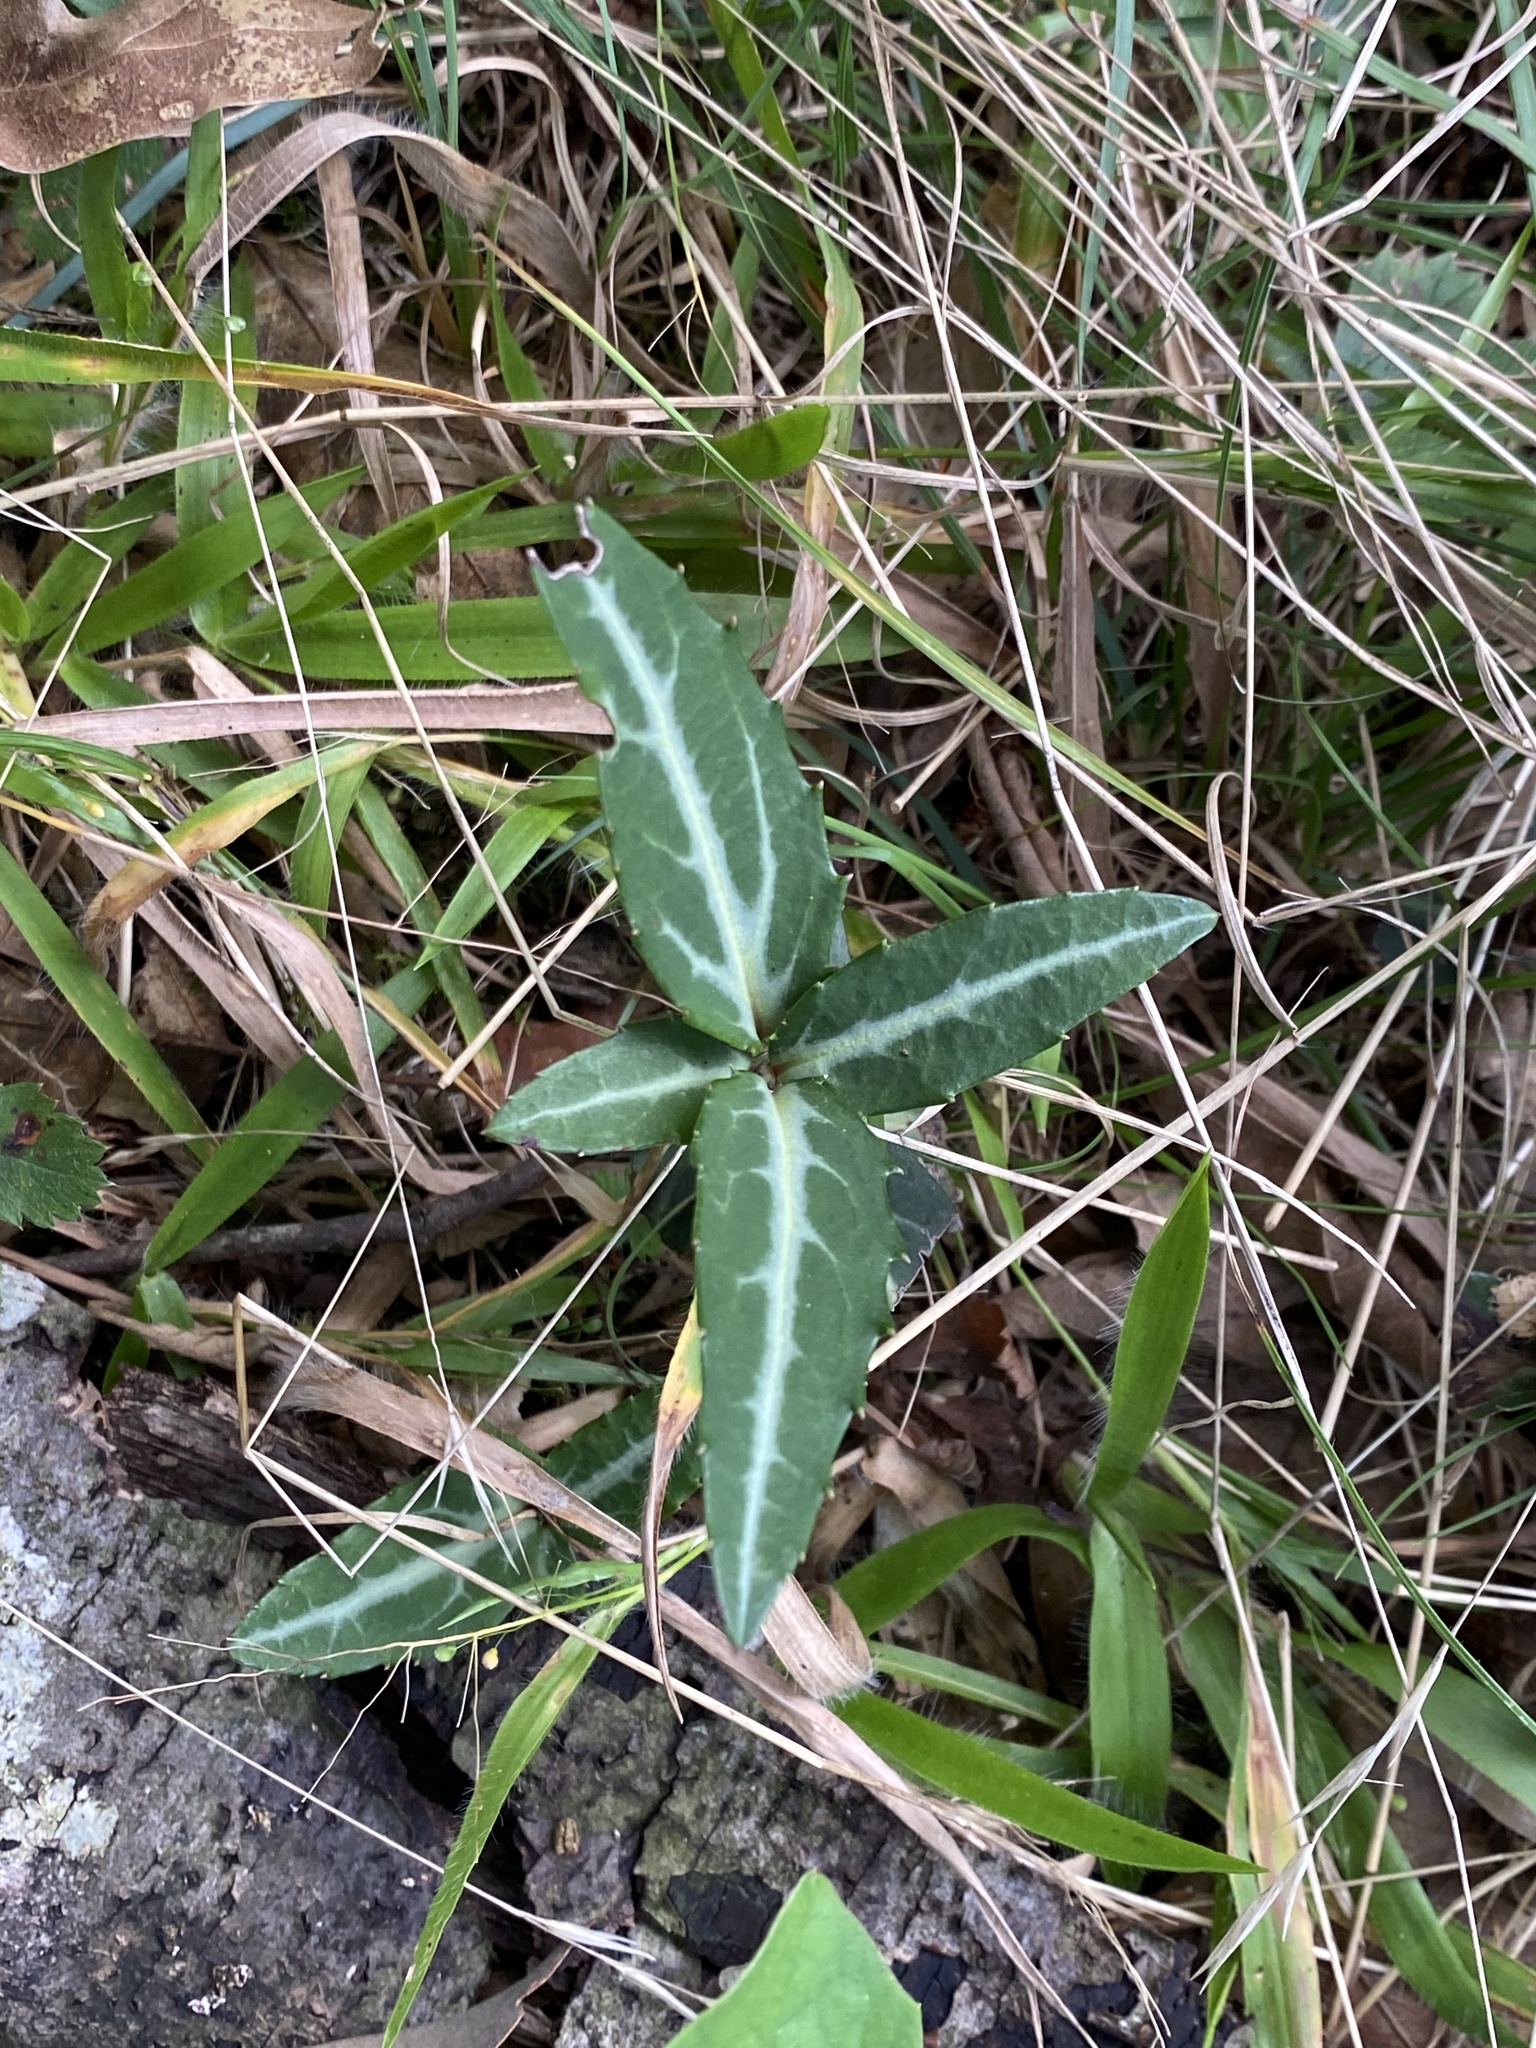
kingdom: Plantae
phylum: Tracheophyta
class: Magnoliopsida
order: Ericales
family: Ericaceae
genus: Chimaphila
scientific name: Chimaphila maculata
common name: Spotted pipsissewa
